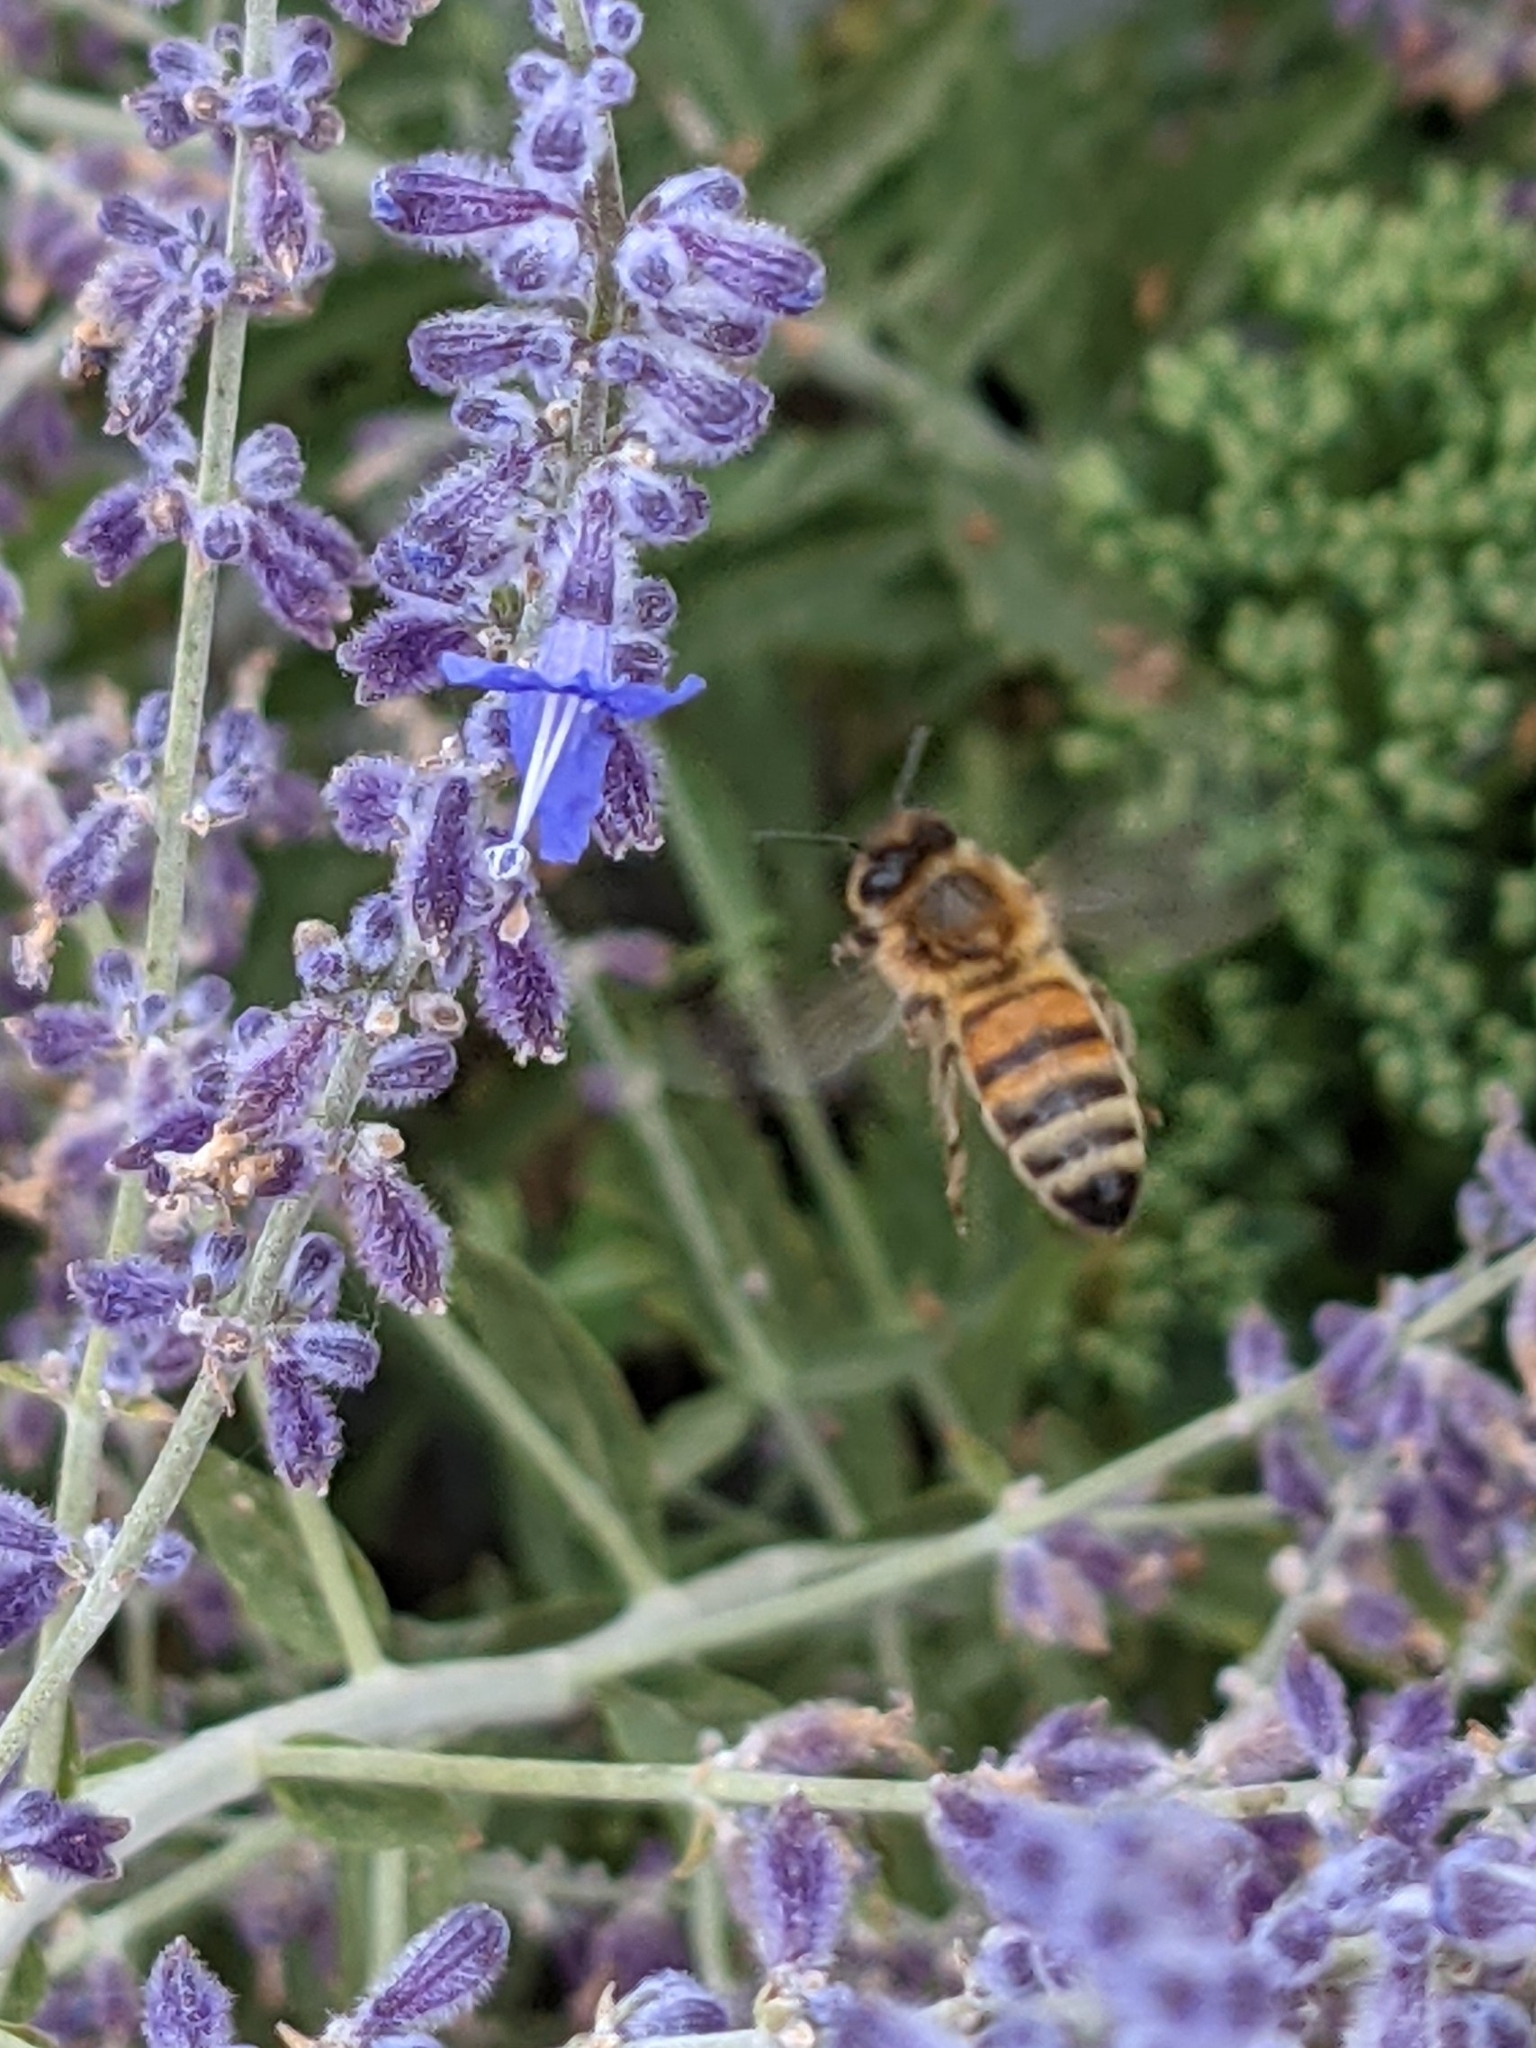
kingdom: Animalia
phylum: Arthropoda
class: Insecta
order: Hymenoptera
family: Apidae
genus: Apis
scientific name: Apis mellifera
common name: Honey bee
